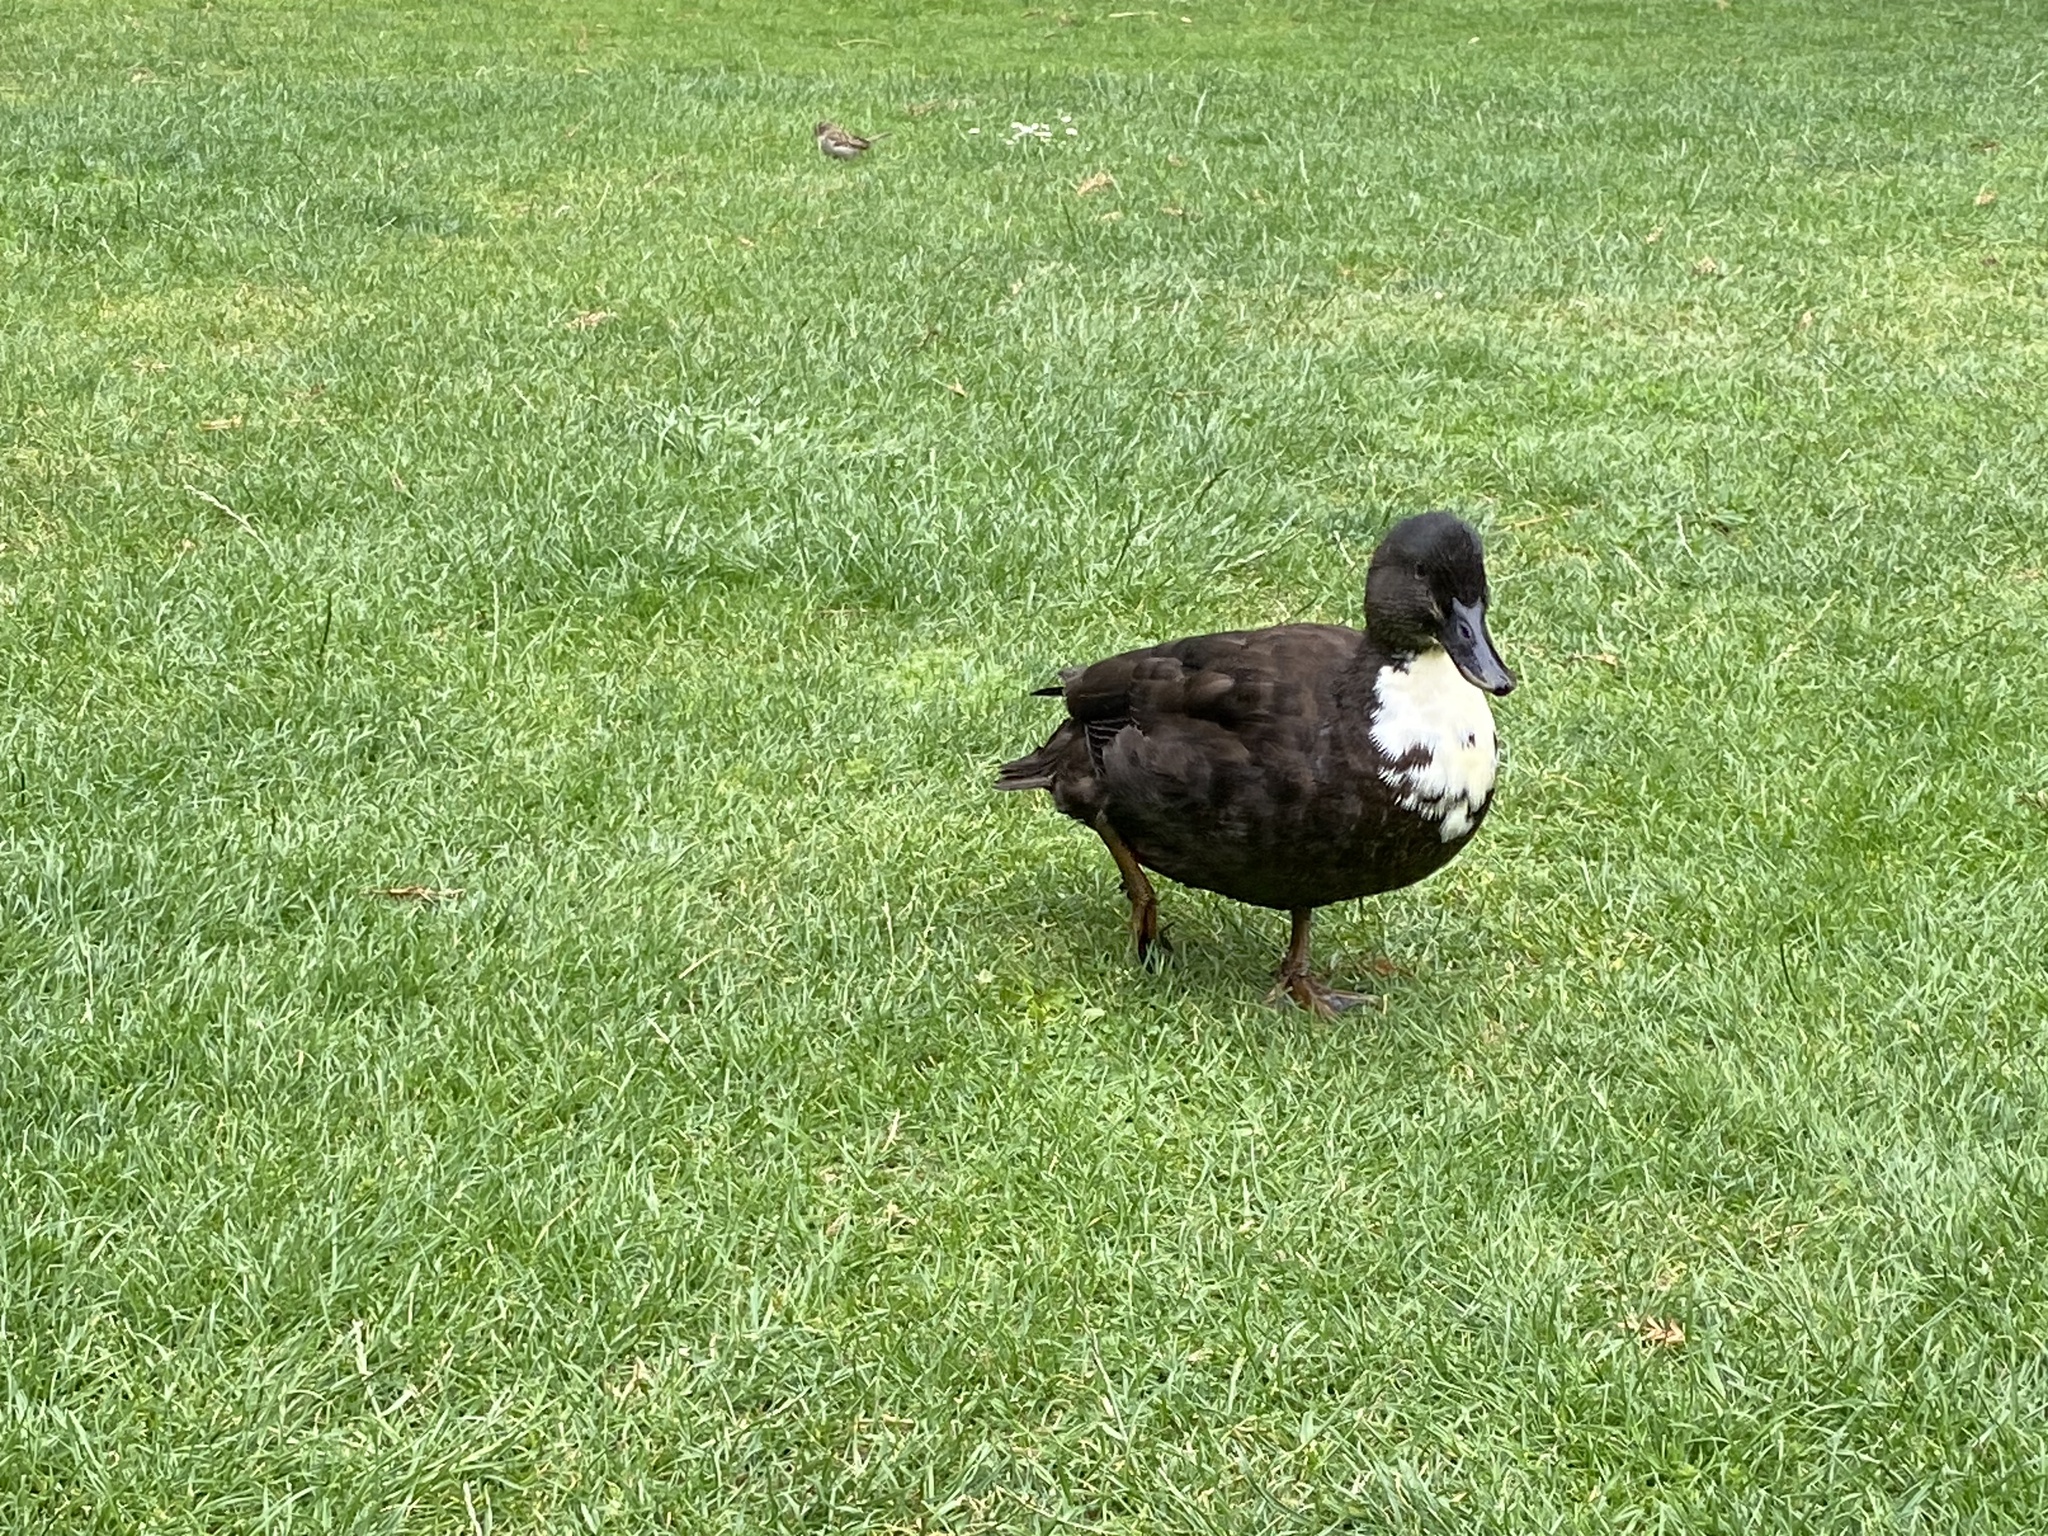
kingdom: Animalia
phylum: Chordata
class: Aves
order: Anseriformes
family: Anatidae
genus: Anas
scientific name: Anas platyrhynchos
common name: Mallard
